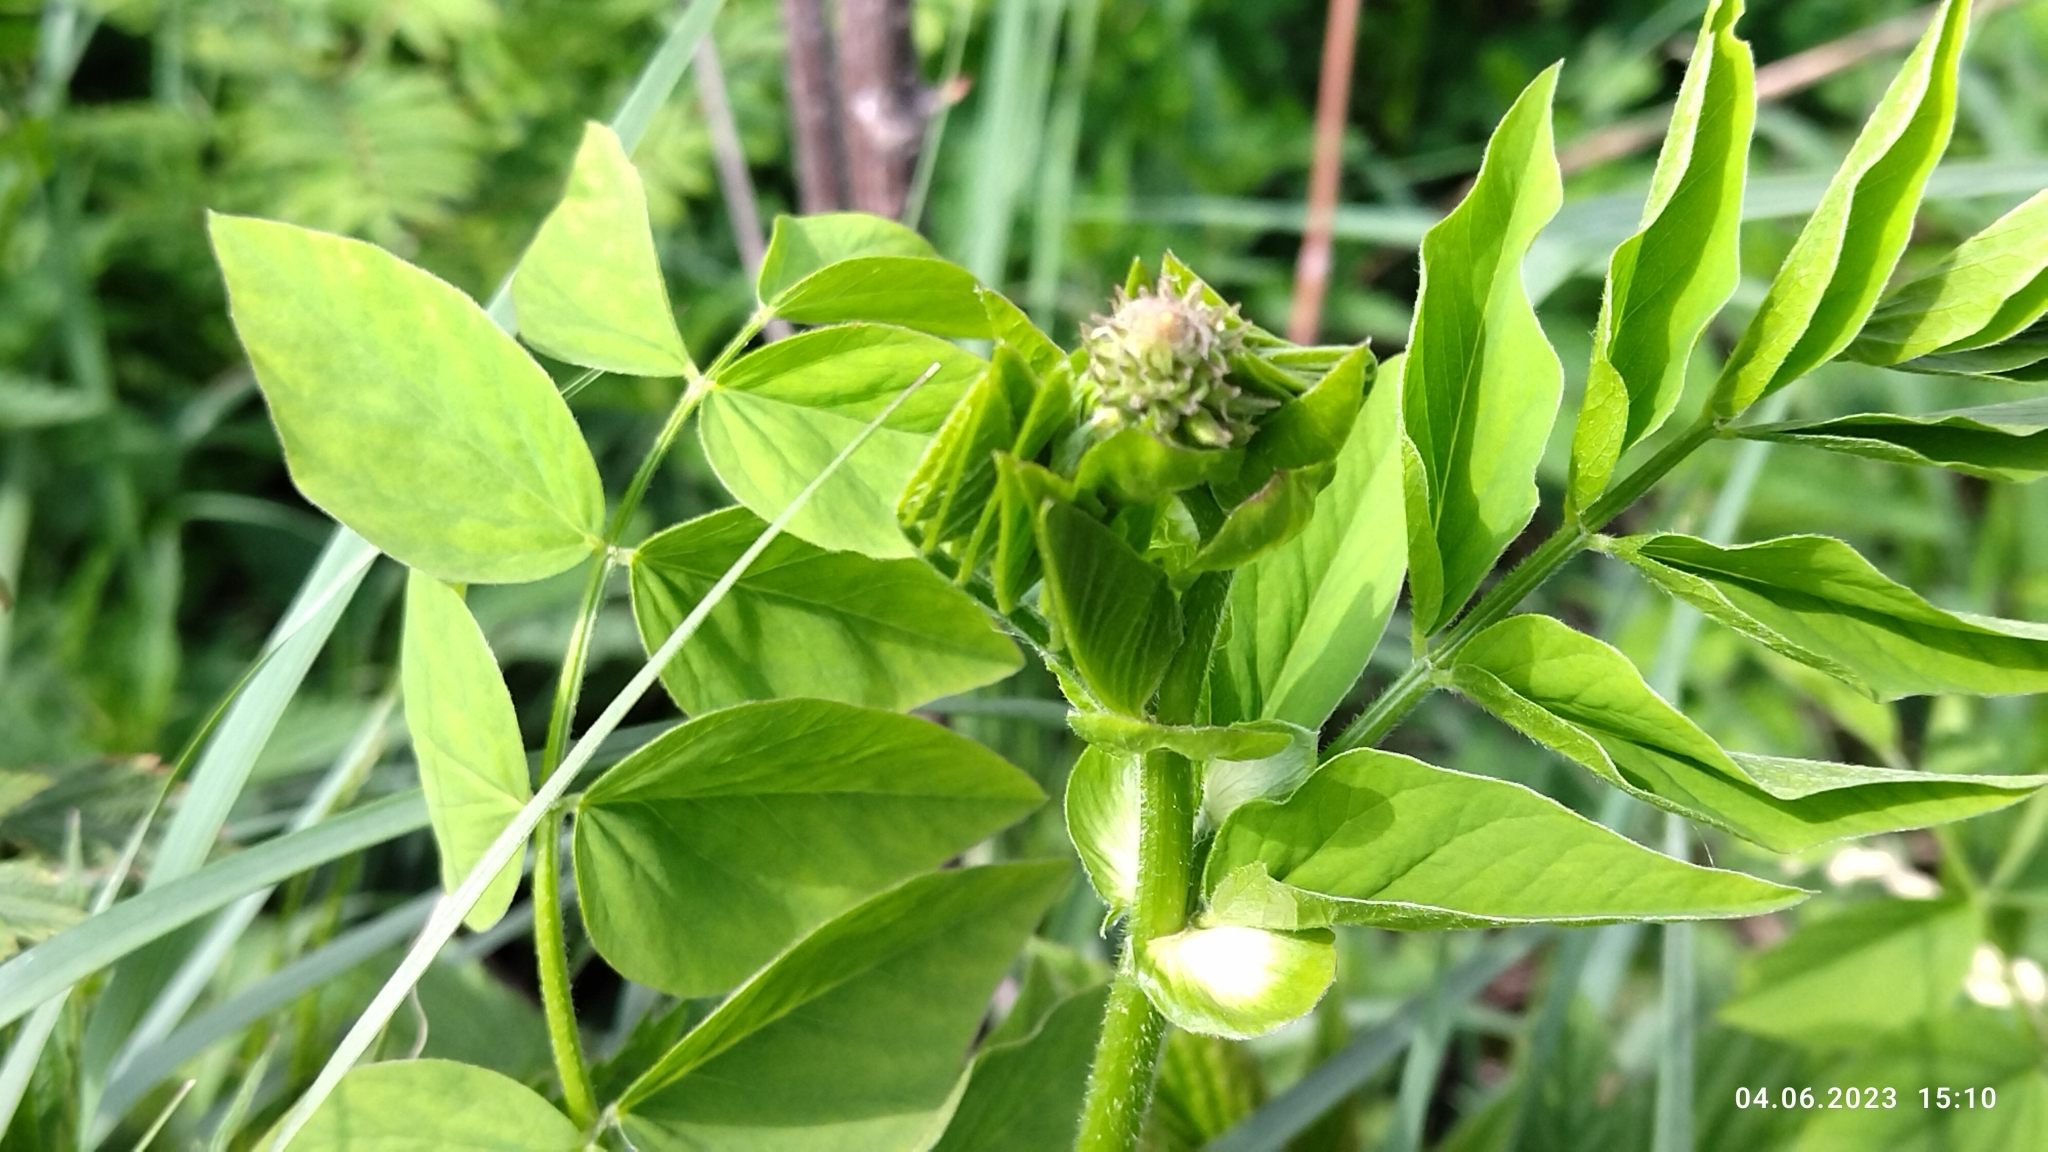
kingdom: Plantae
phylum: Tracheophyta
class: Magnoliopsida
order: Fabales
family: Fabaceae
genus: Galega
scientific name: Galega orientalis
